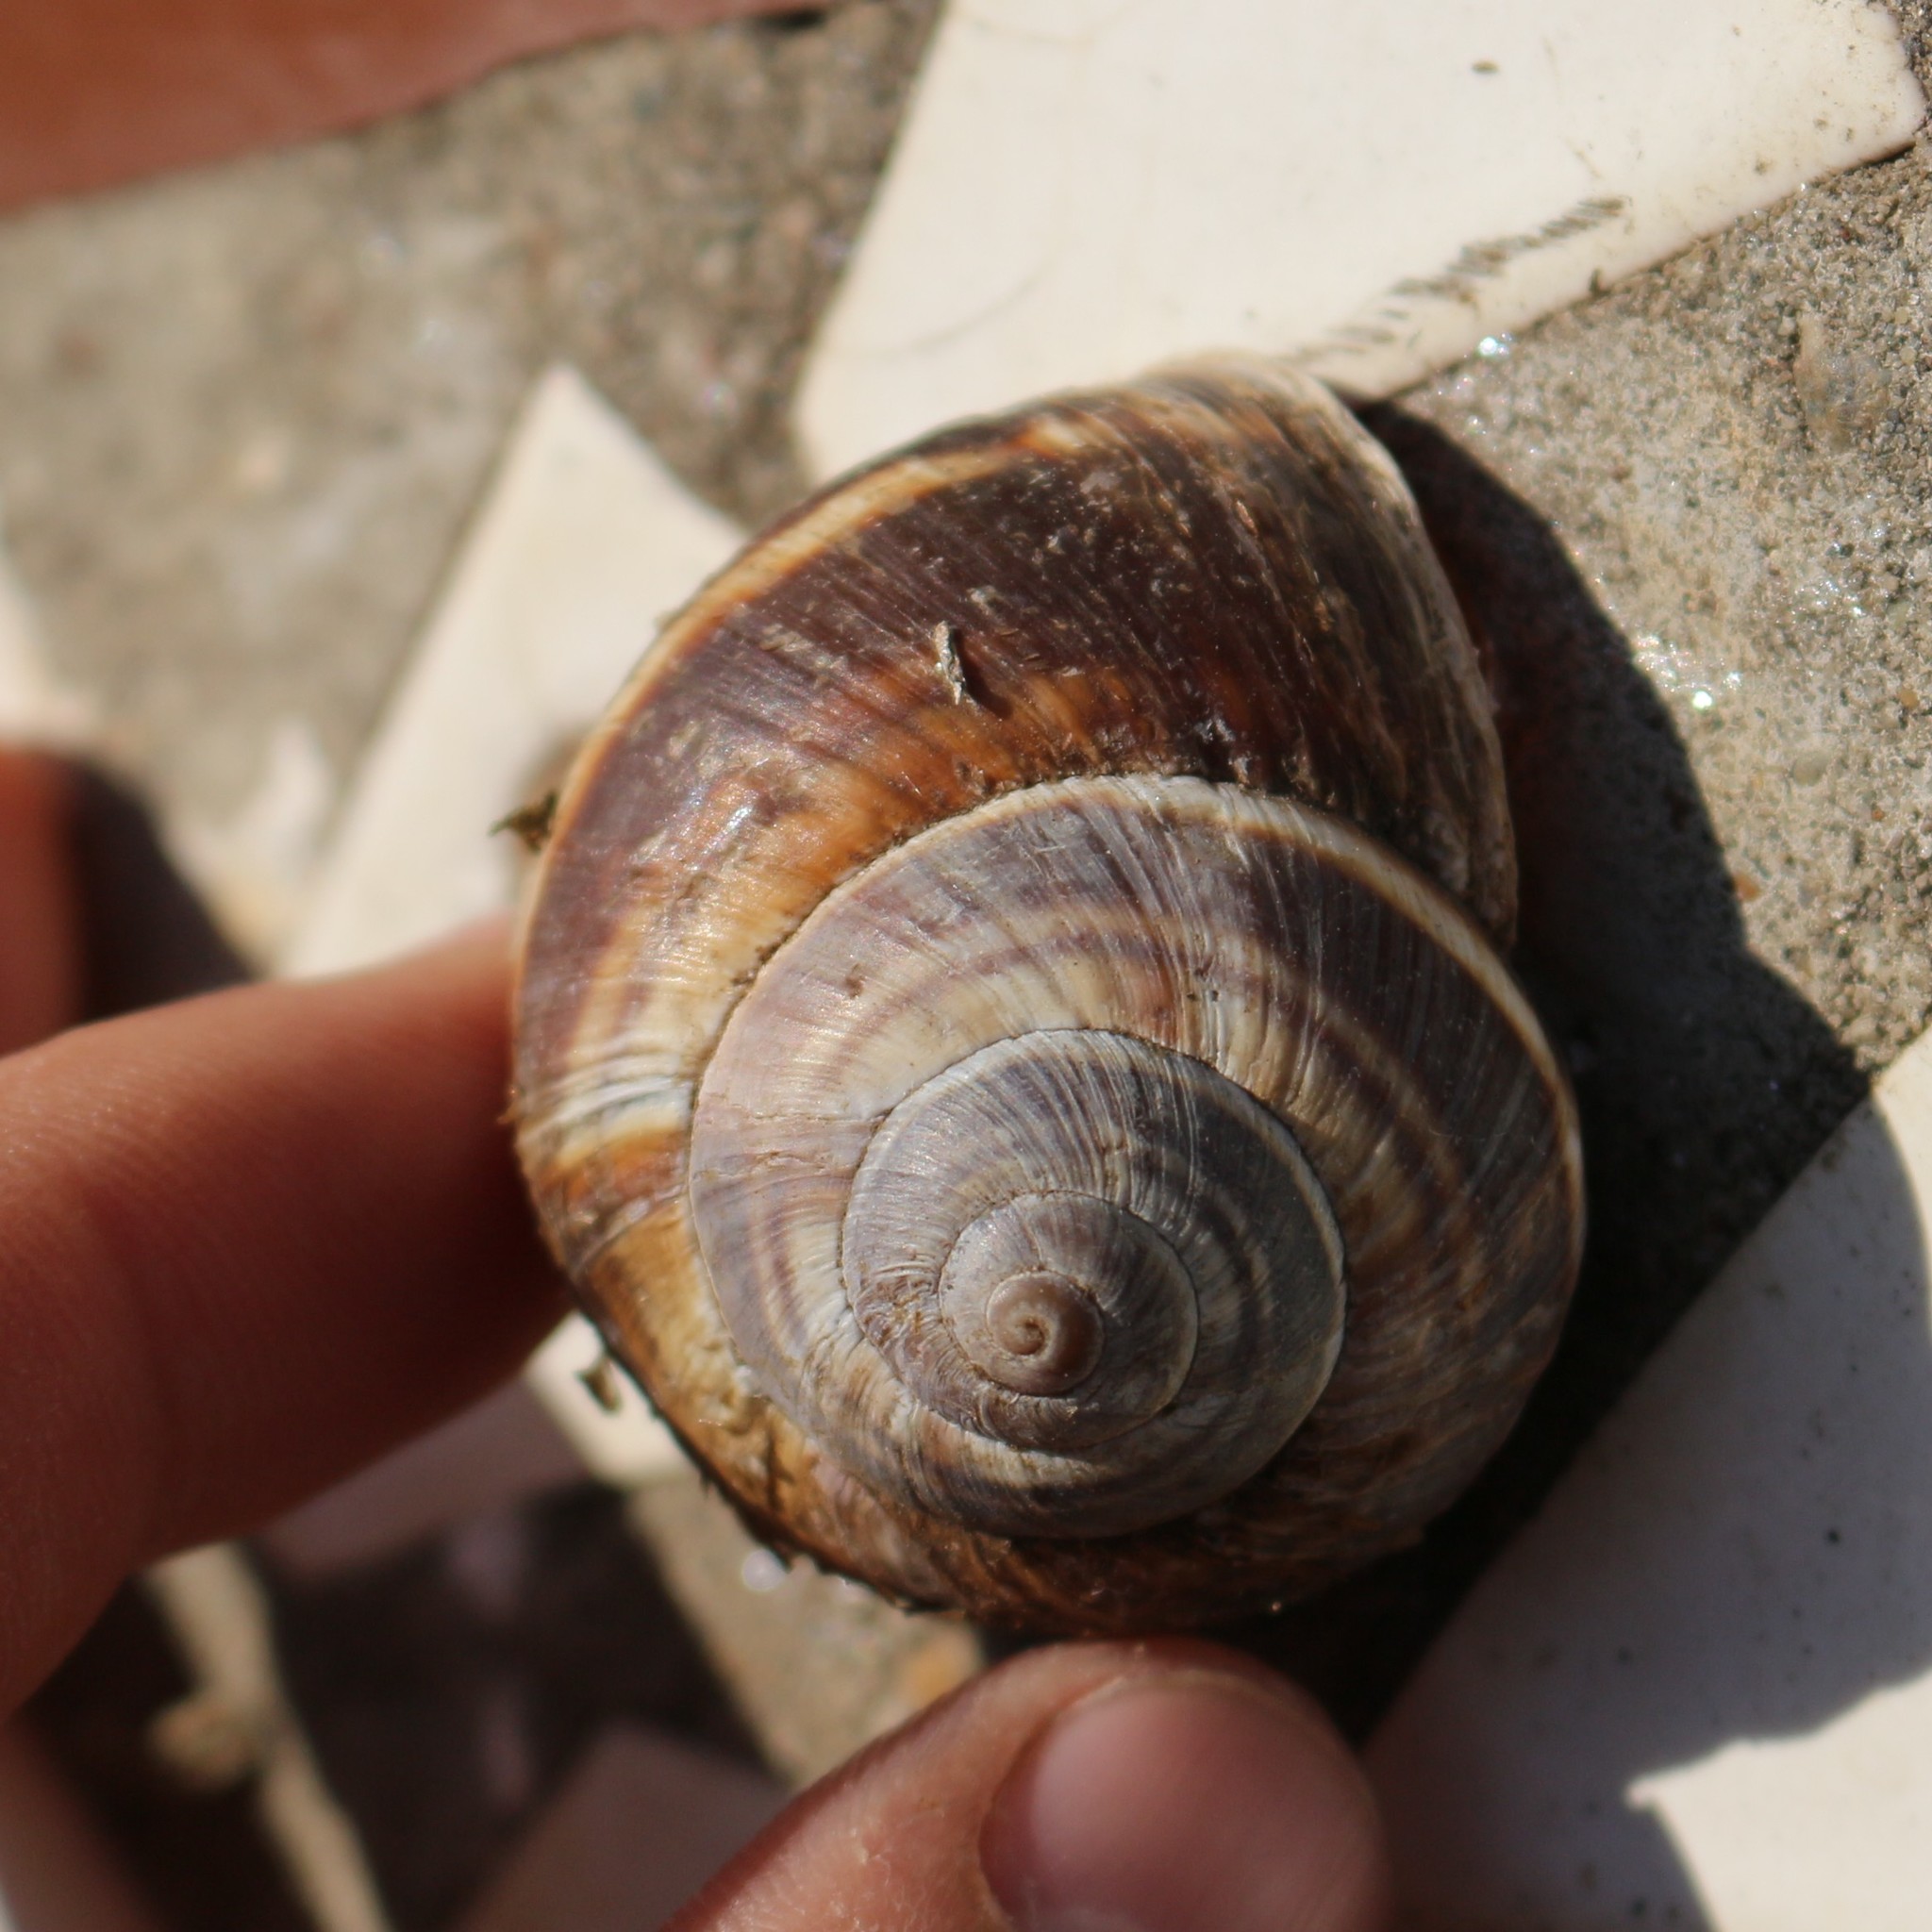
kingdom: Animalia
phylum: Mollusca
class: Gastropoda
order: Stylommatophora
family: Helicidae
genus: Helix
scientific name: Helix lucorum
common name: Turkish snail
